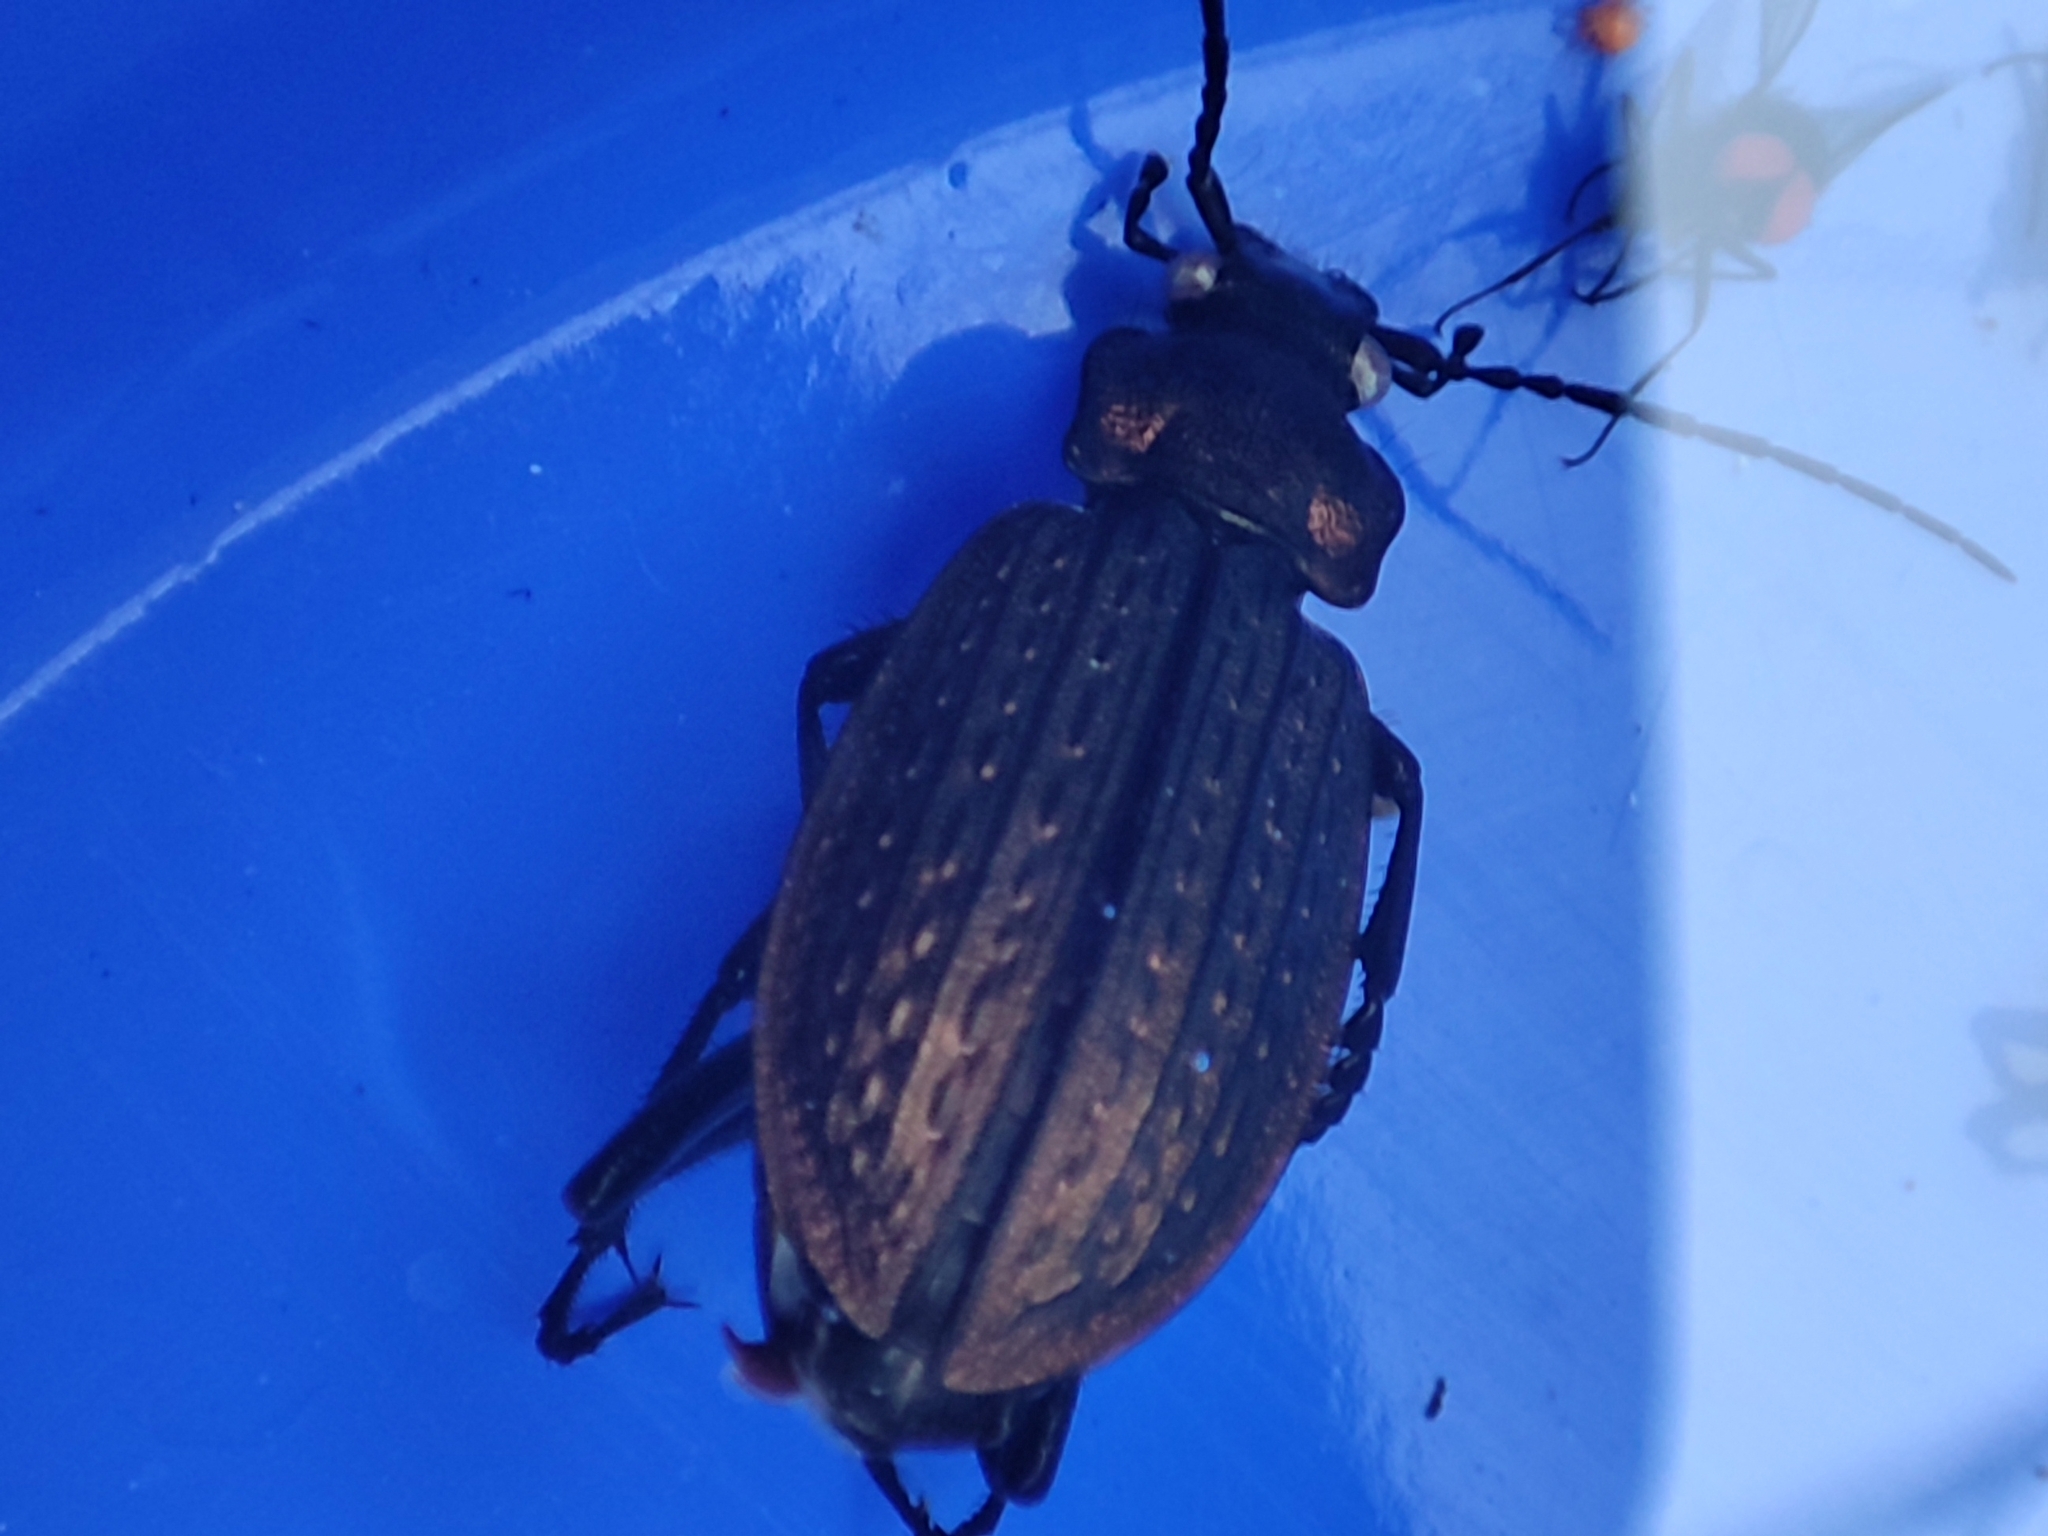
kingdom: Animalia
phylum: Arthropoda
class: Insecta
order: Coleoptera
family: Carabidae
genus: Carabus
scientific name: Carabus granulatus
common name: Granulate ground beetle
